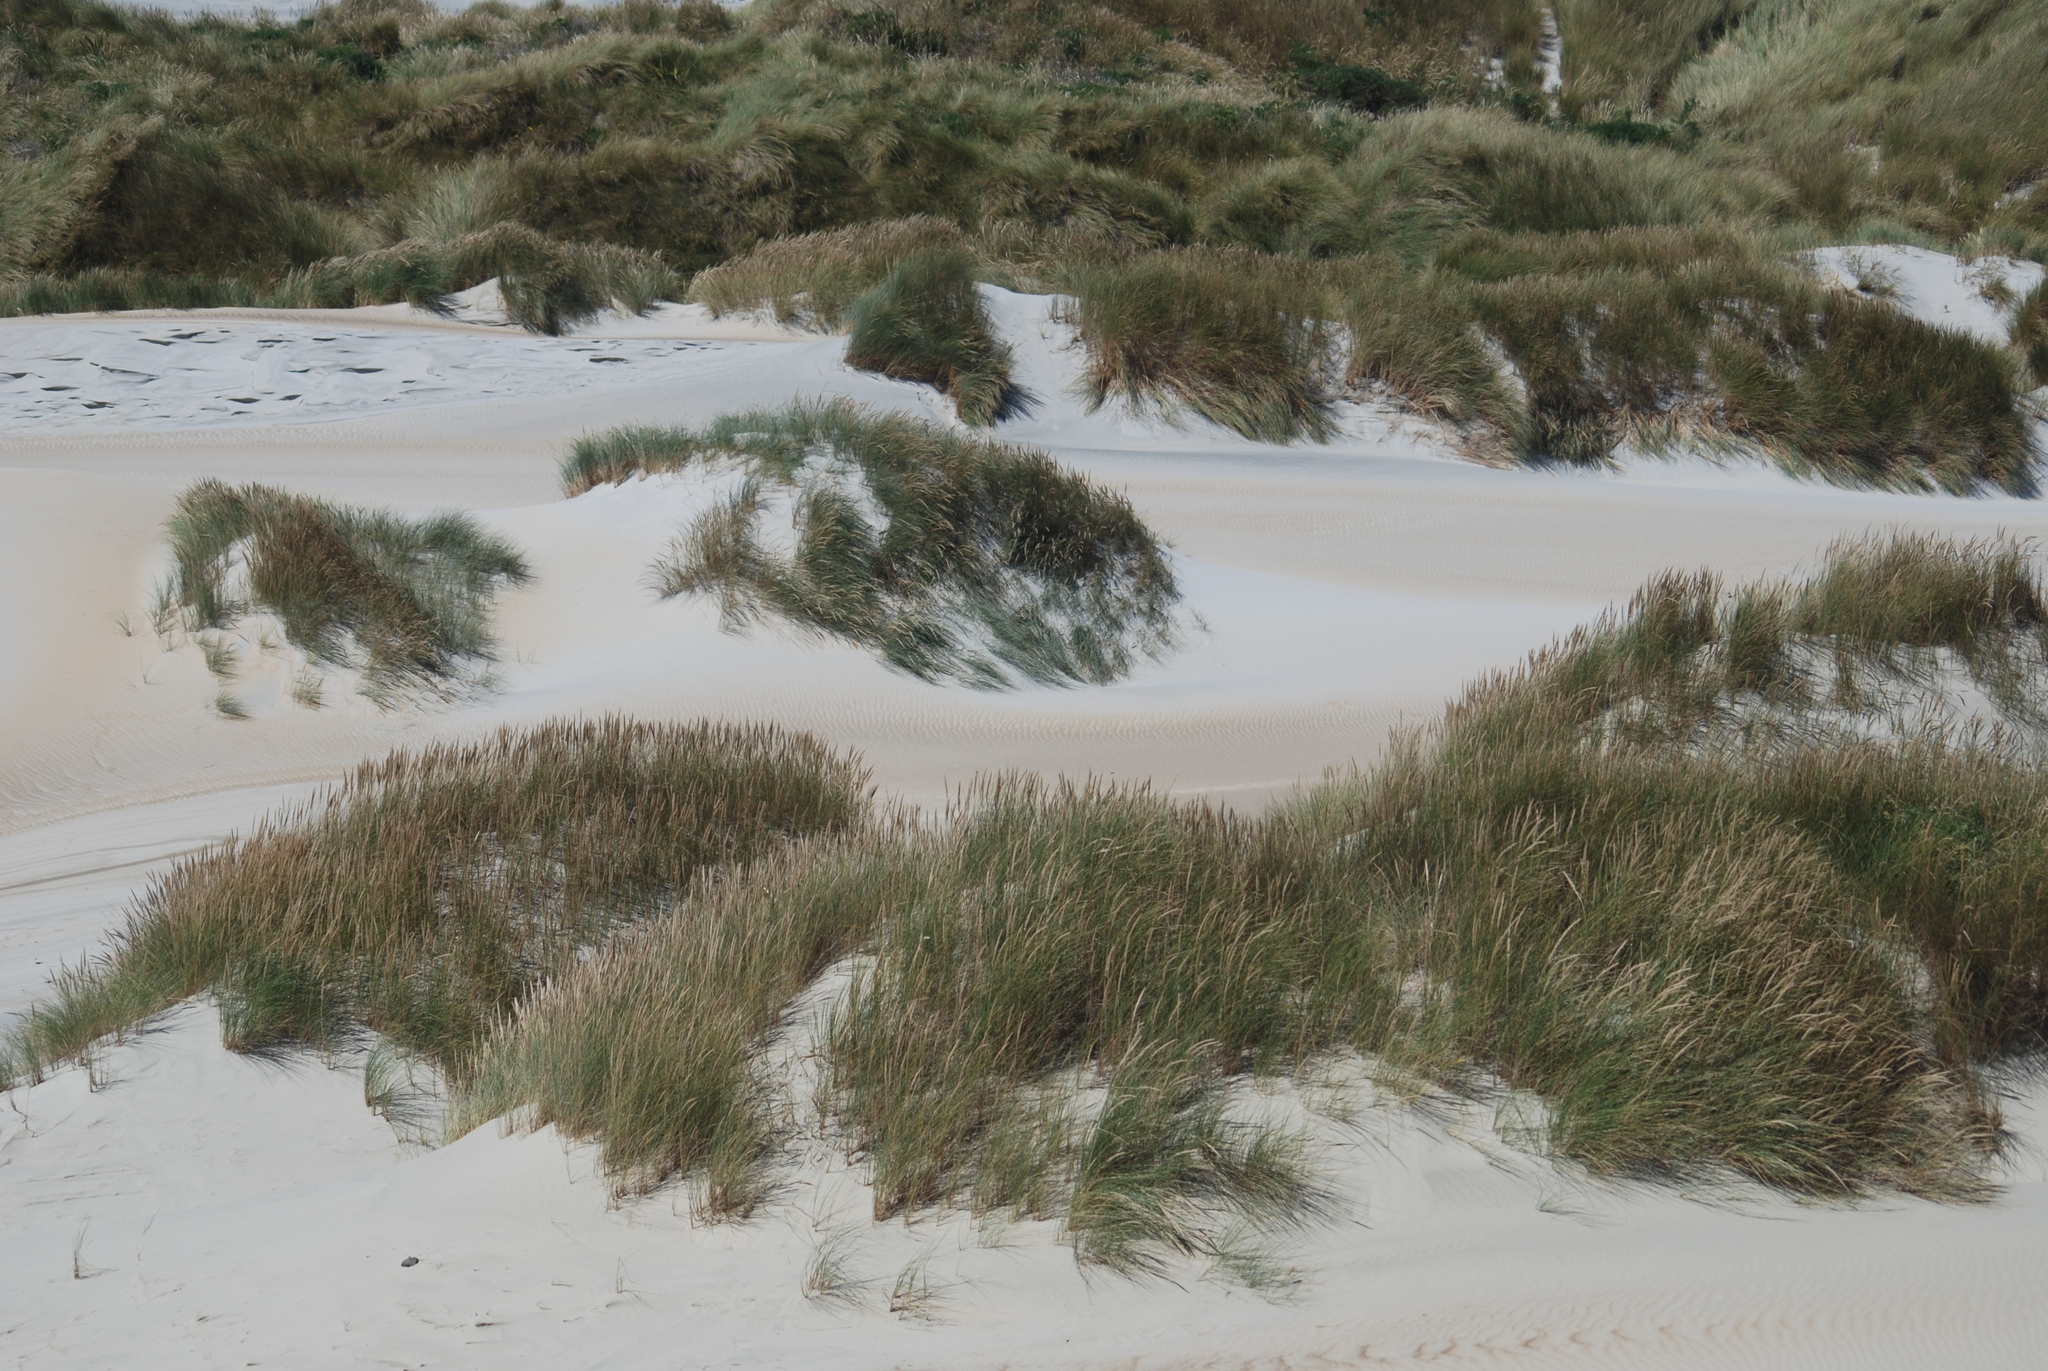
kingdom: Plantae
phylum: Tracheophyta
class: Liliopsida
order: Poales
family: Poaceae
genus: Calamagrostis
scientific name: Calamagrostis arenaria
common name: European beachgrass
